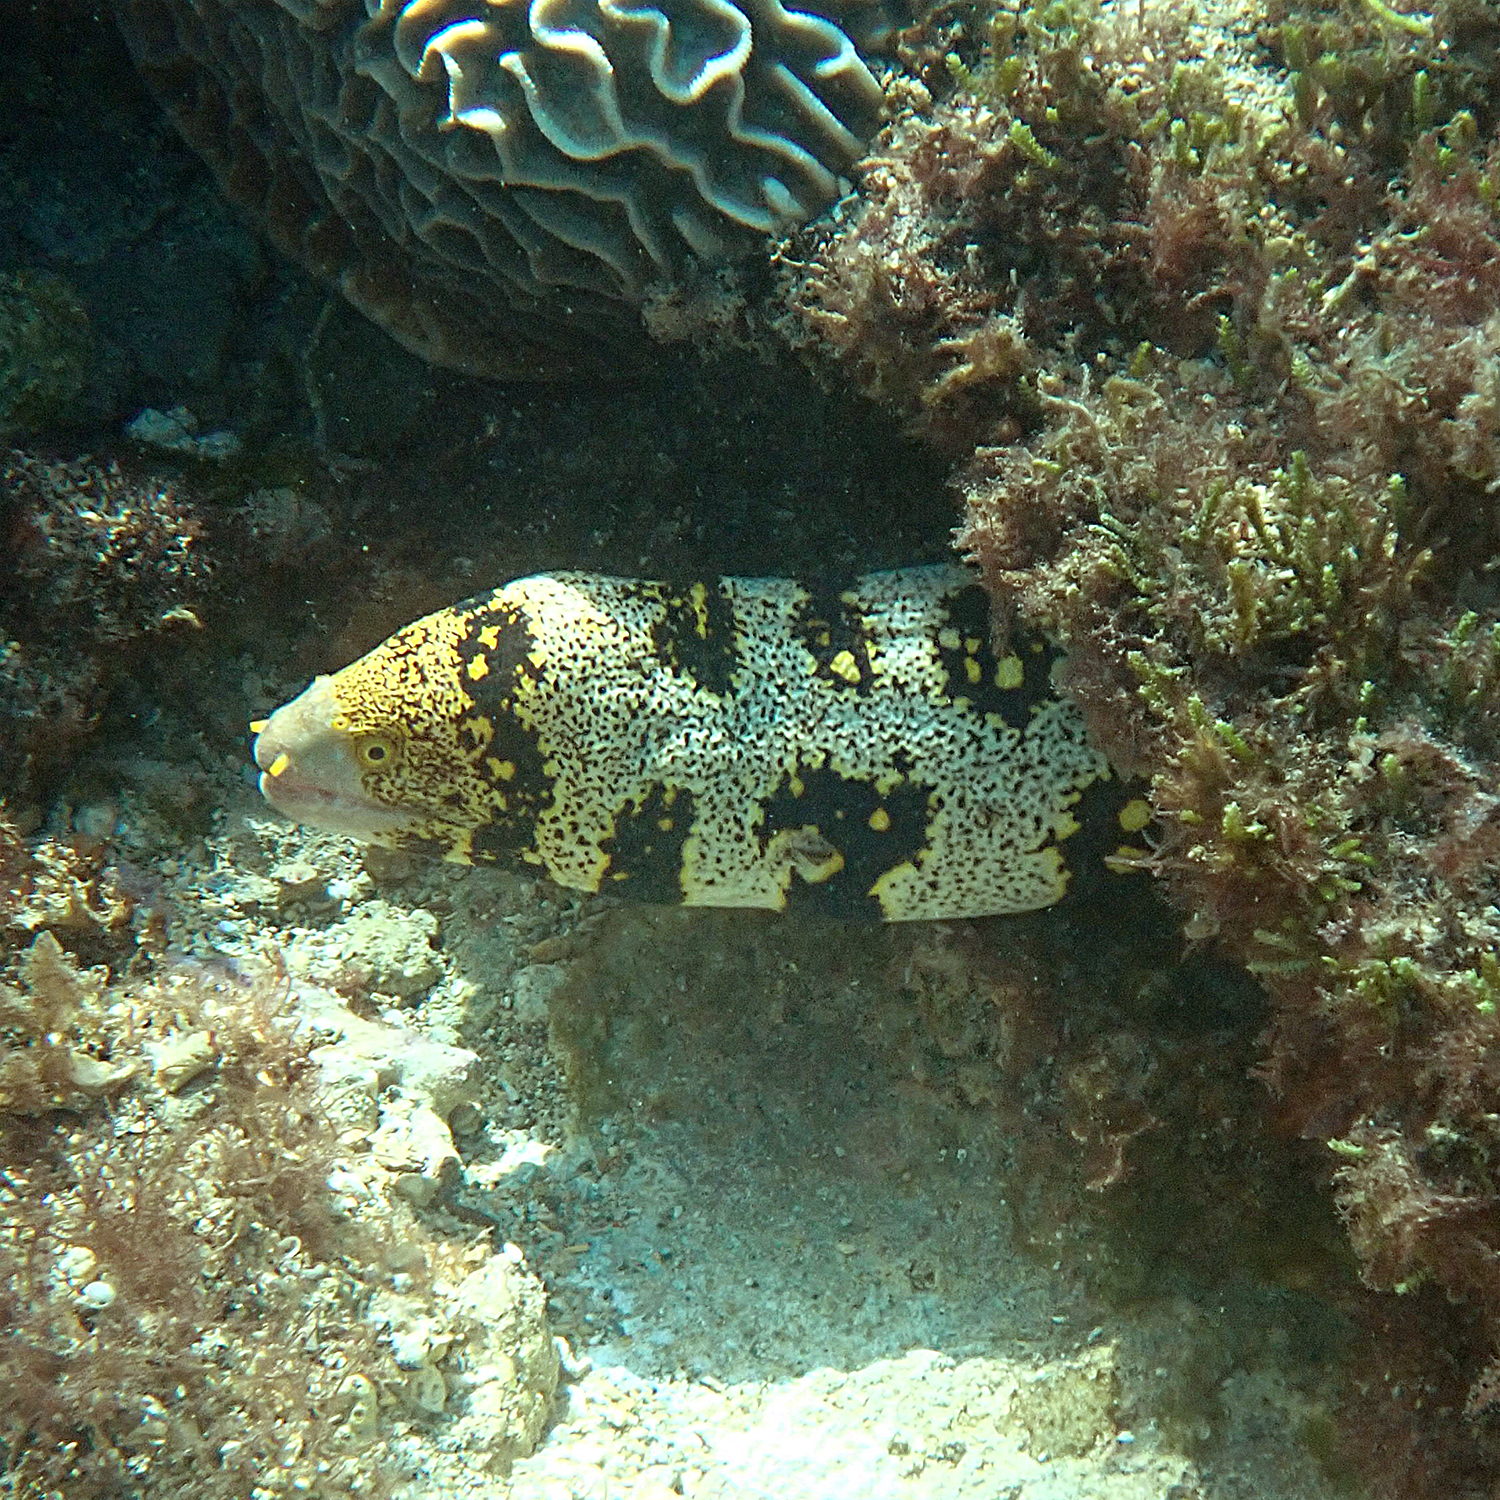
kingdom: Animalia
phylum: Chordata
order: Anguilliformes
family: Muraenidae
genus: Echidna
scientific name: Echidna nebulosa
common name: Snowflake moray
